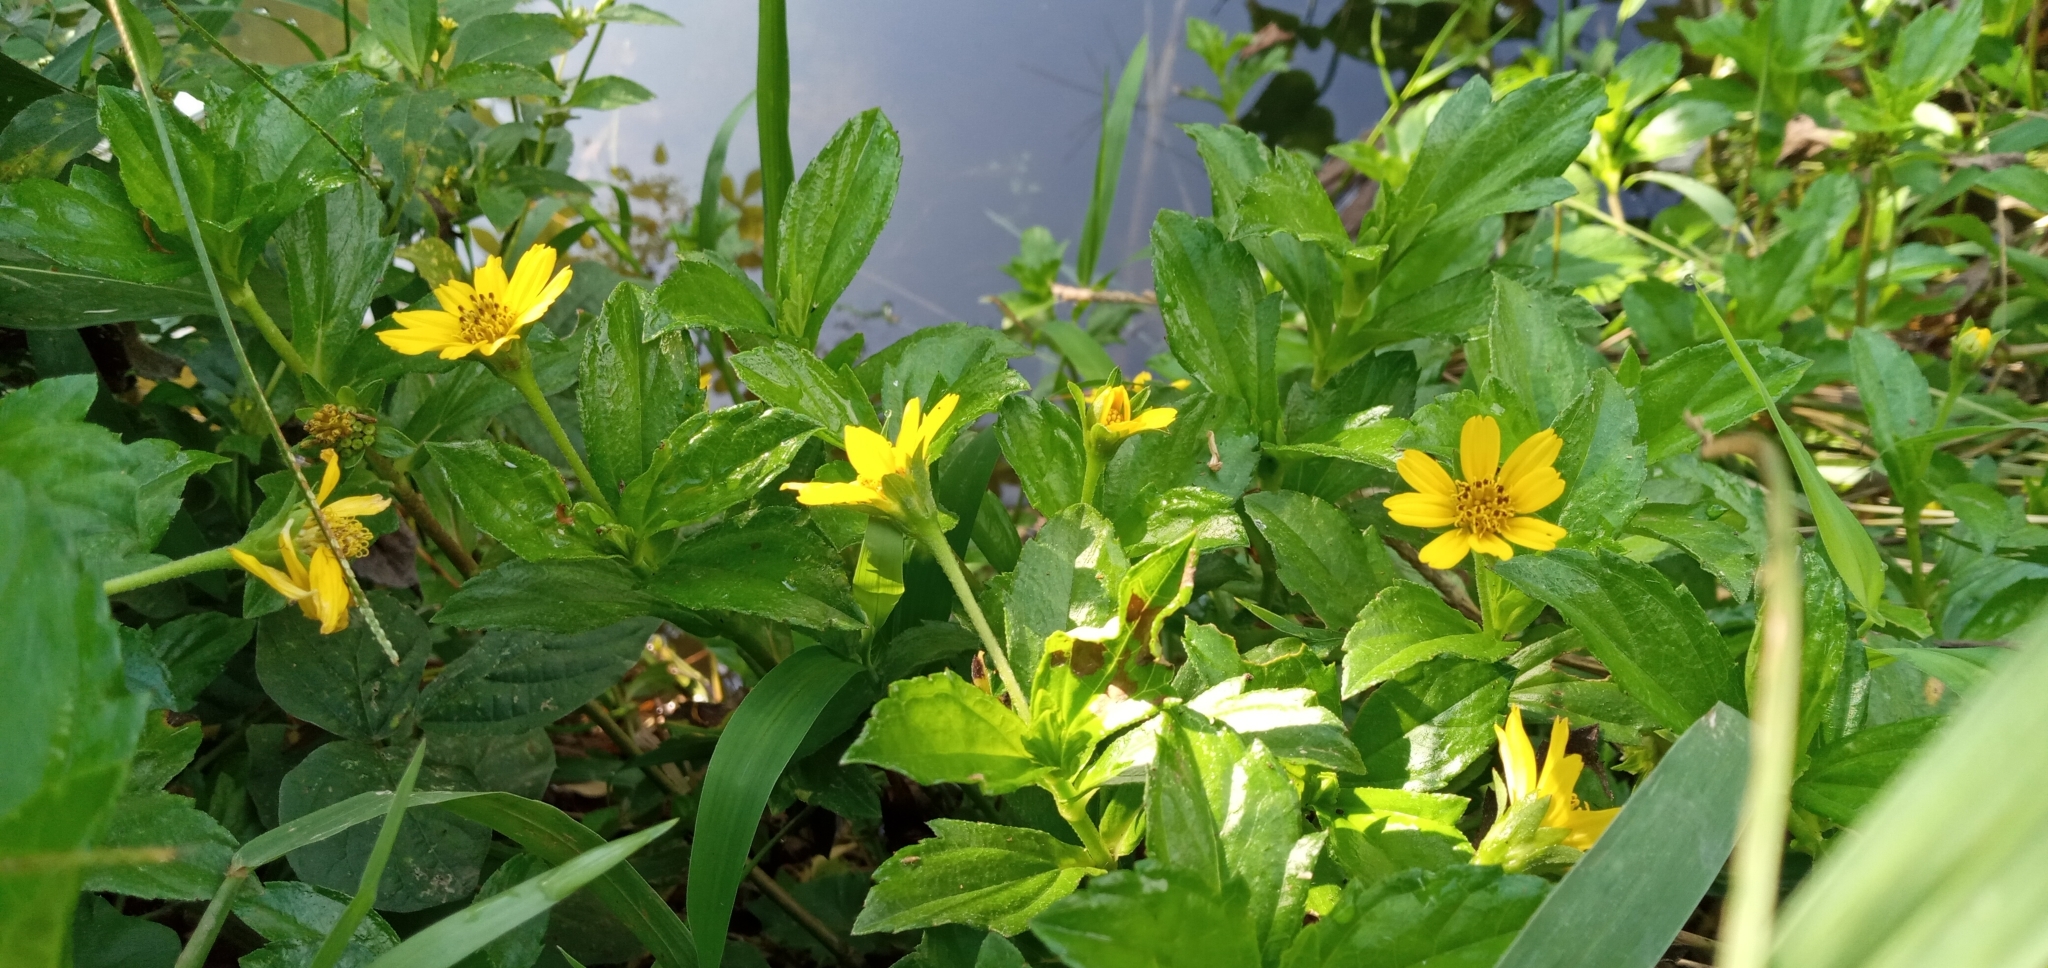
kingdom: Plantae
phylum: Tracheophyta
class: Magnoliopsida
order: Asterales
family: Asteraceae
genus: Sphagneticola
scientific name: Sphagneticola trilobata
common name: Bay biscayne creeping-oxeye
